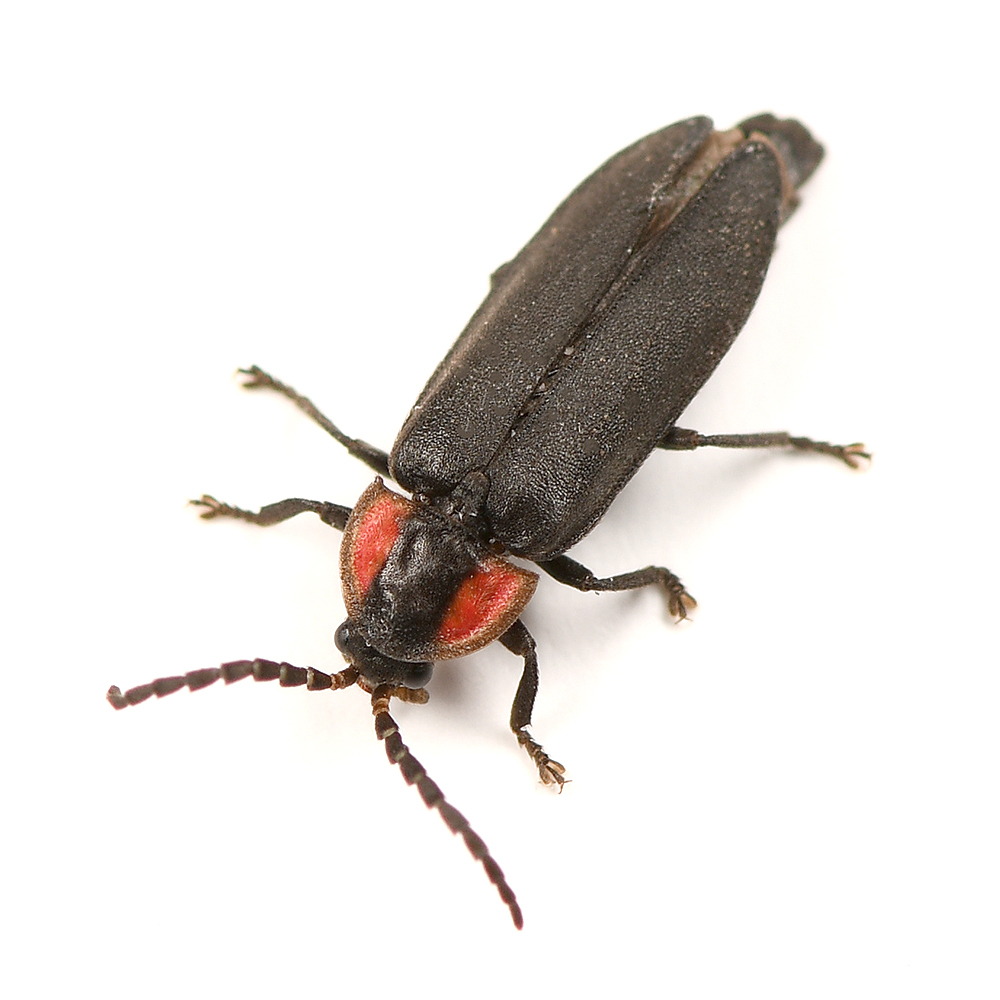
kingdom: Animalia
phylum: Arthropoda
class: Insecta
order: Coleoptera
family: Lampyridae
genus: Pyropyga
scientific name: Pyropyga nigricans
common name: Dark firefly
